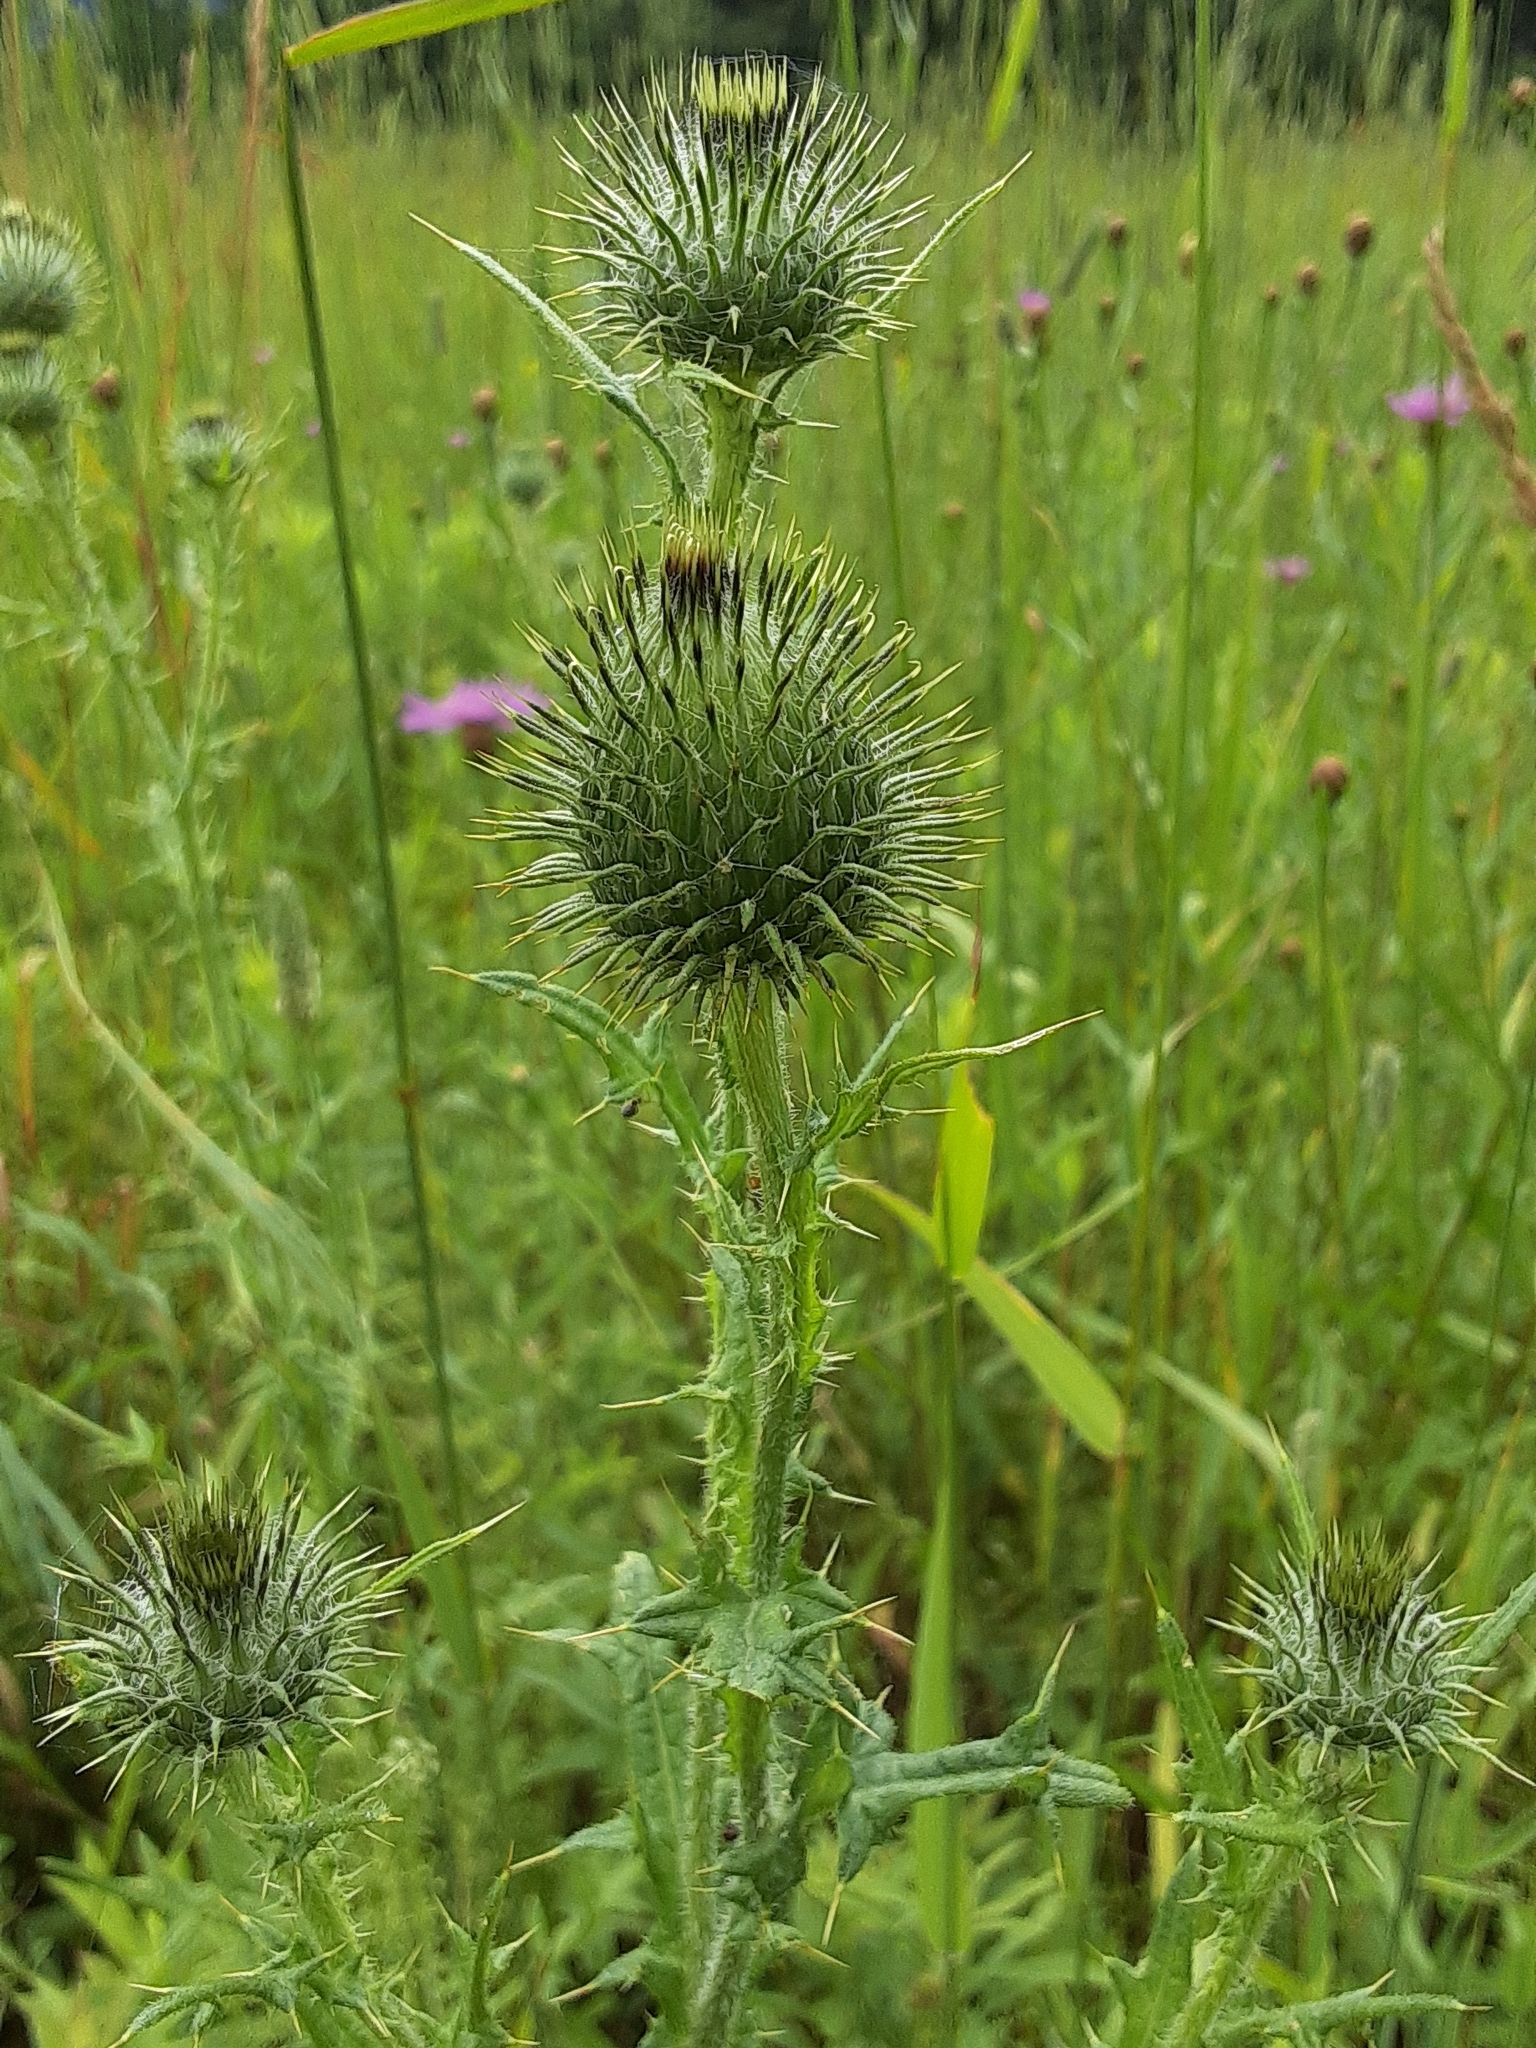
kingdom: Plantae
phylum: Tracheophyta
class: Magnoliopsida
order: Asterales
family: Asteraceae
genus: Cirsium
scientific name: Cirsium vulgare
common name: Bull thistle
